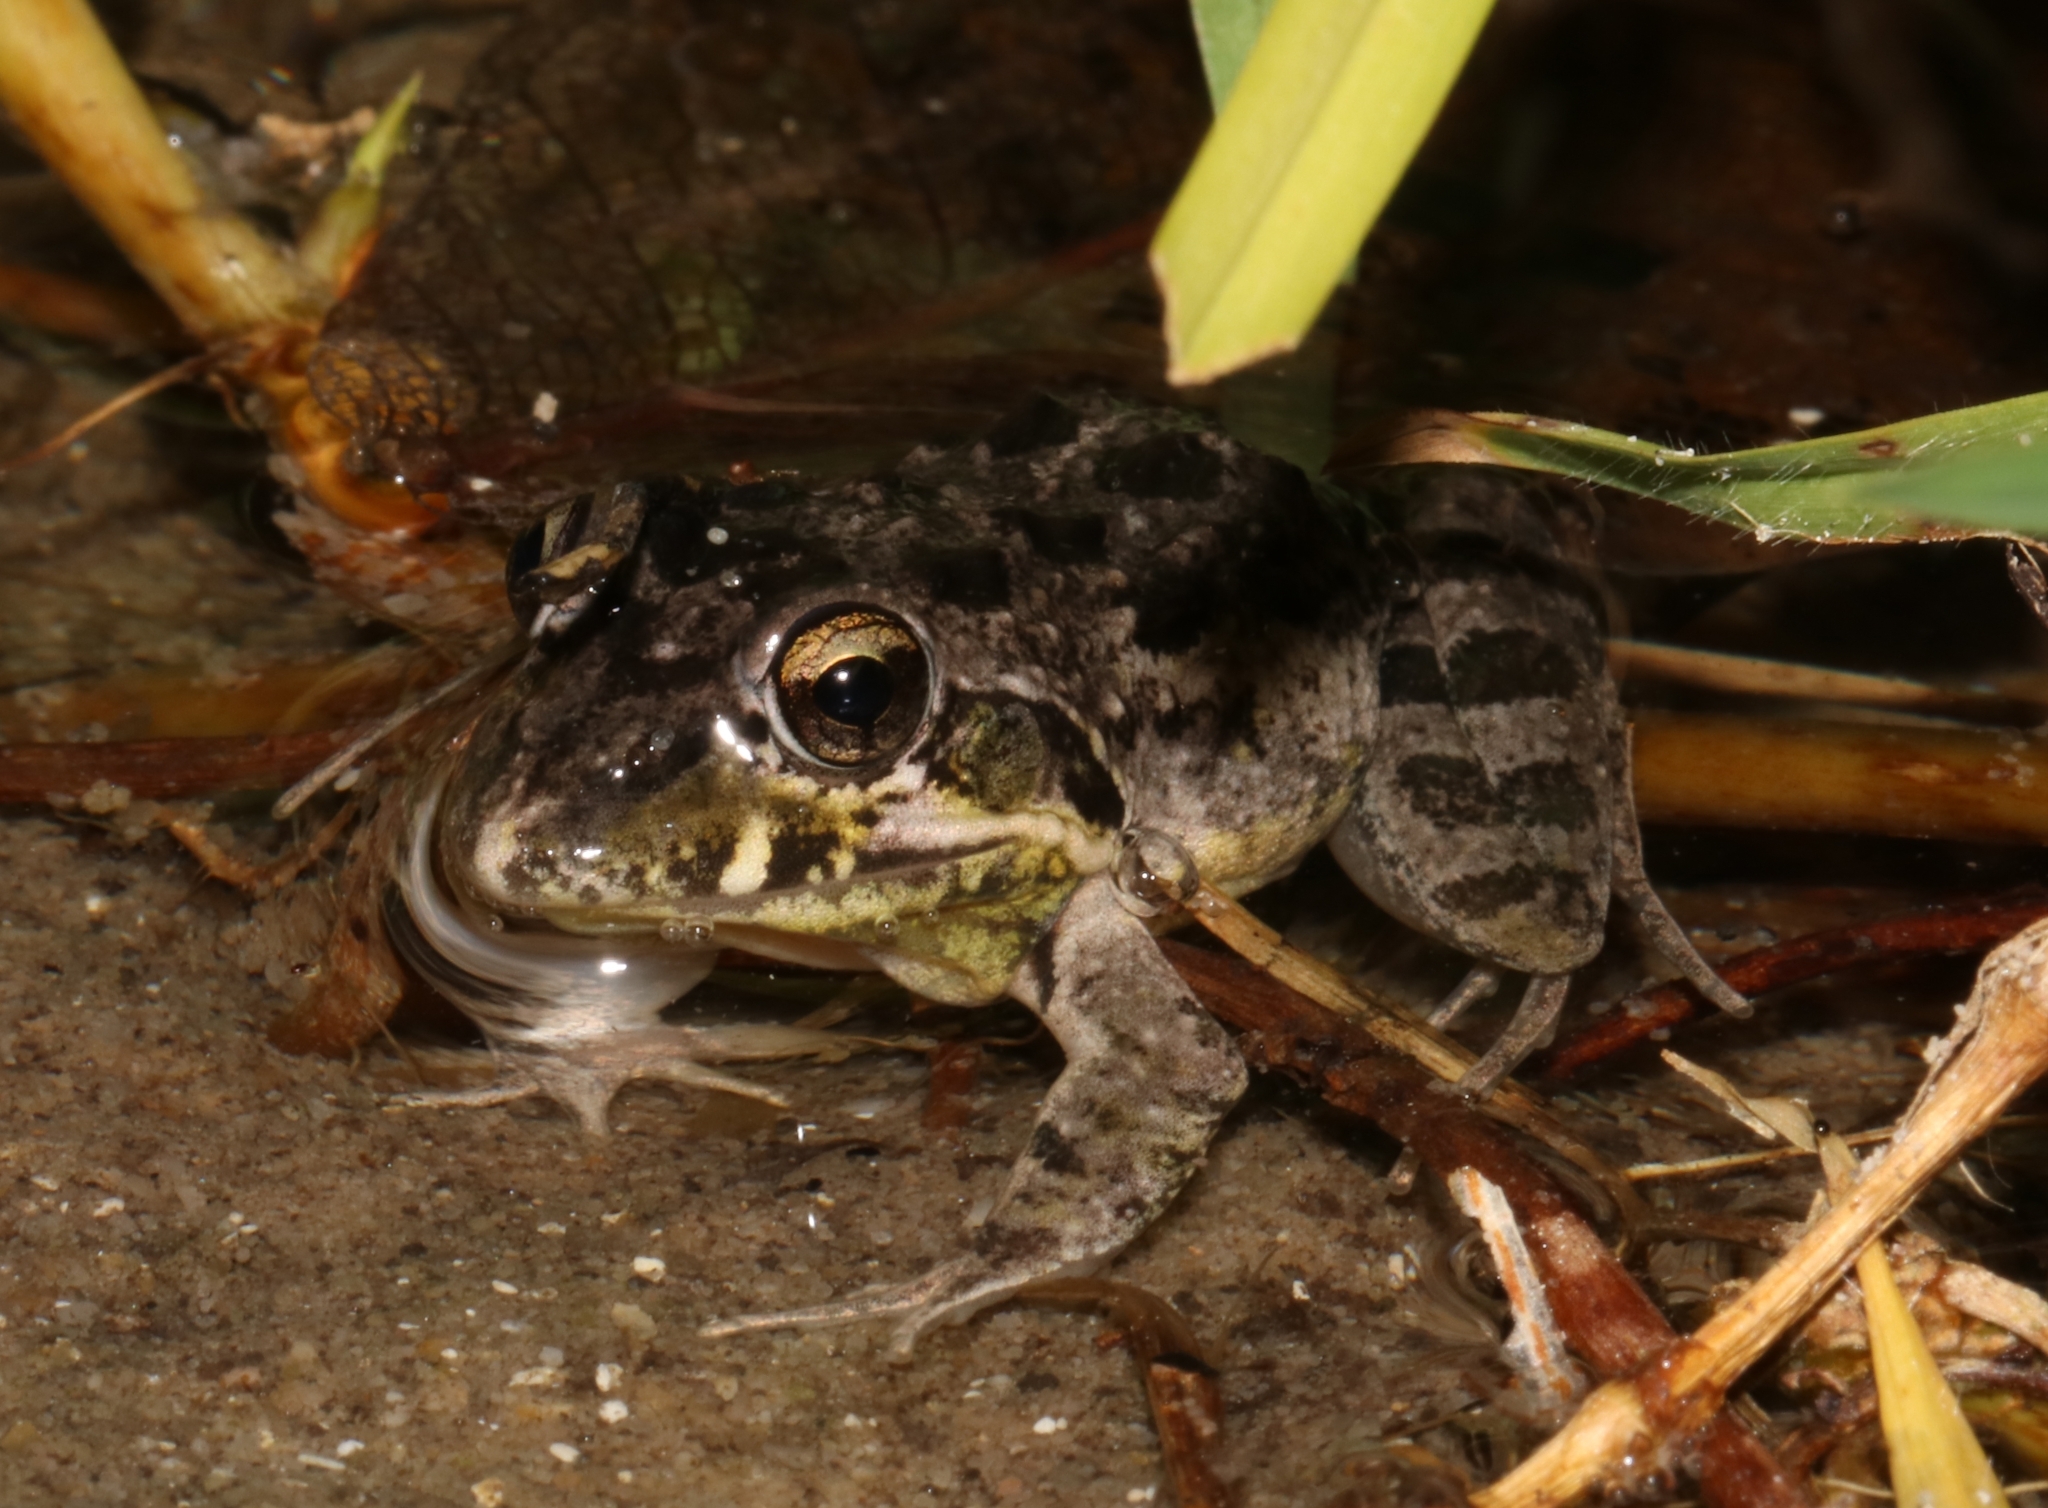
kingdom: Animalia
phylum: Chordata
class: Amphibia
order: Anura
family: Pyxicephalidae
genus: Strongylopus
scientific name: Strongylopus grayii
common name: Gray's stream frog
